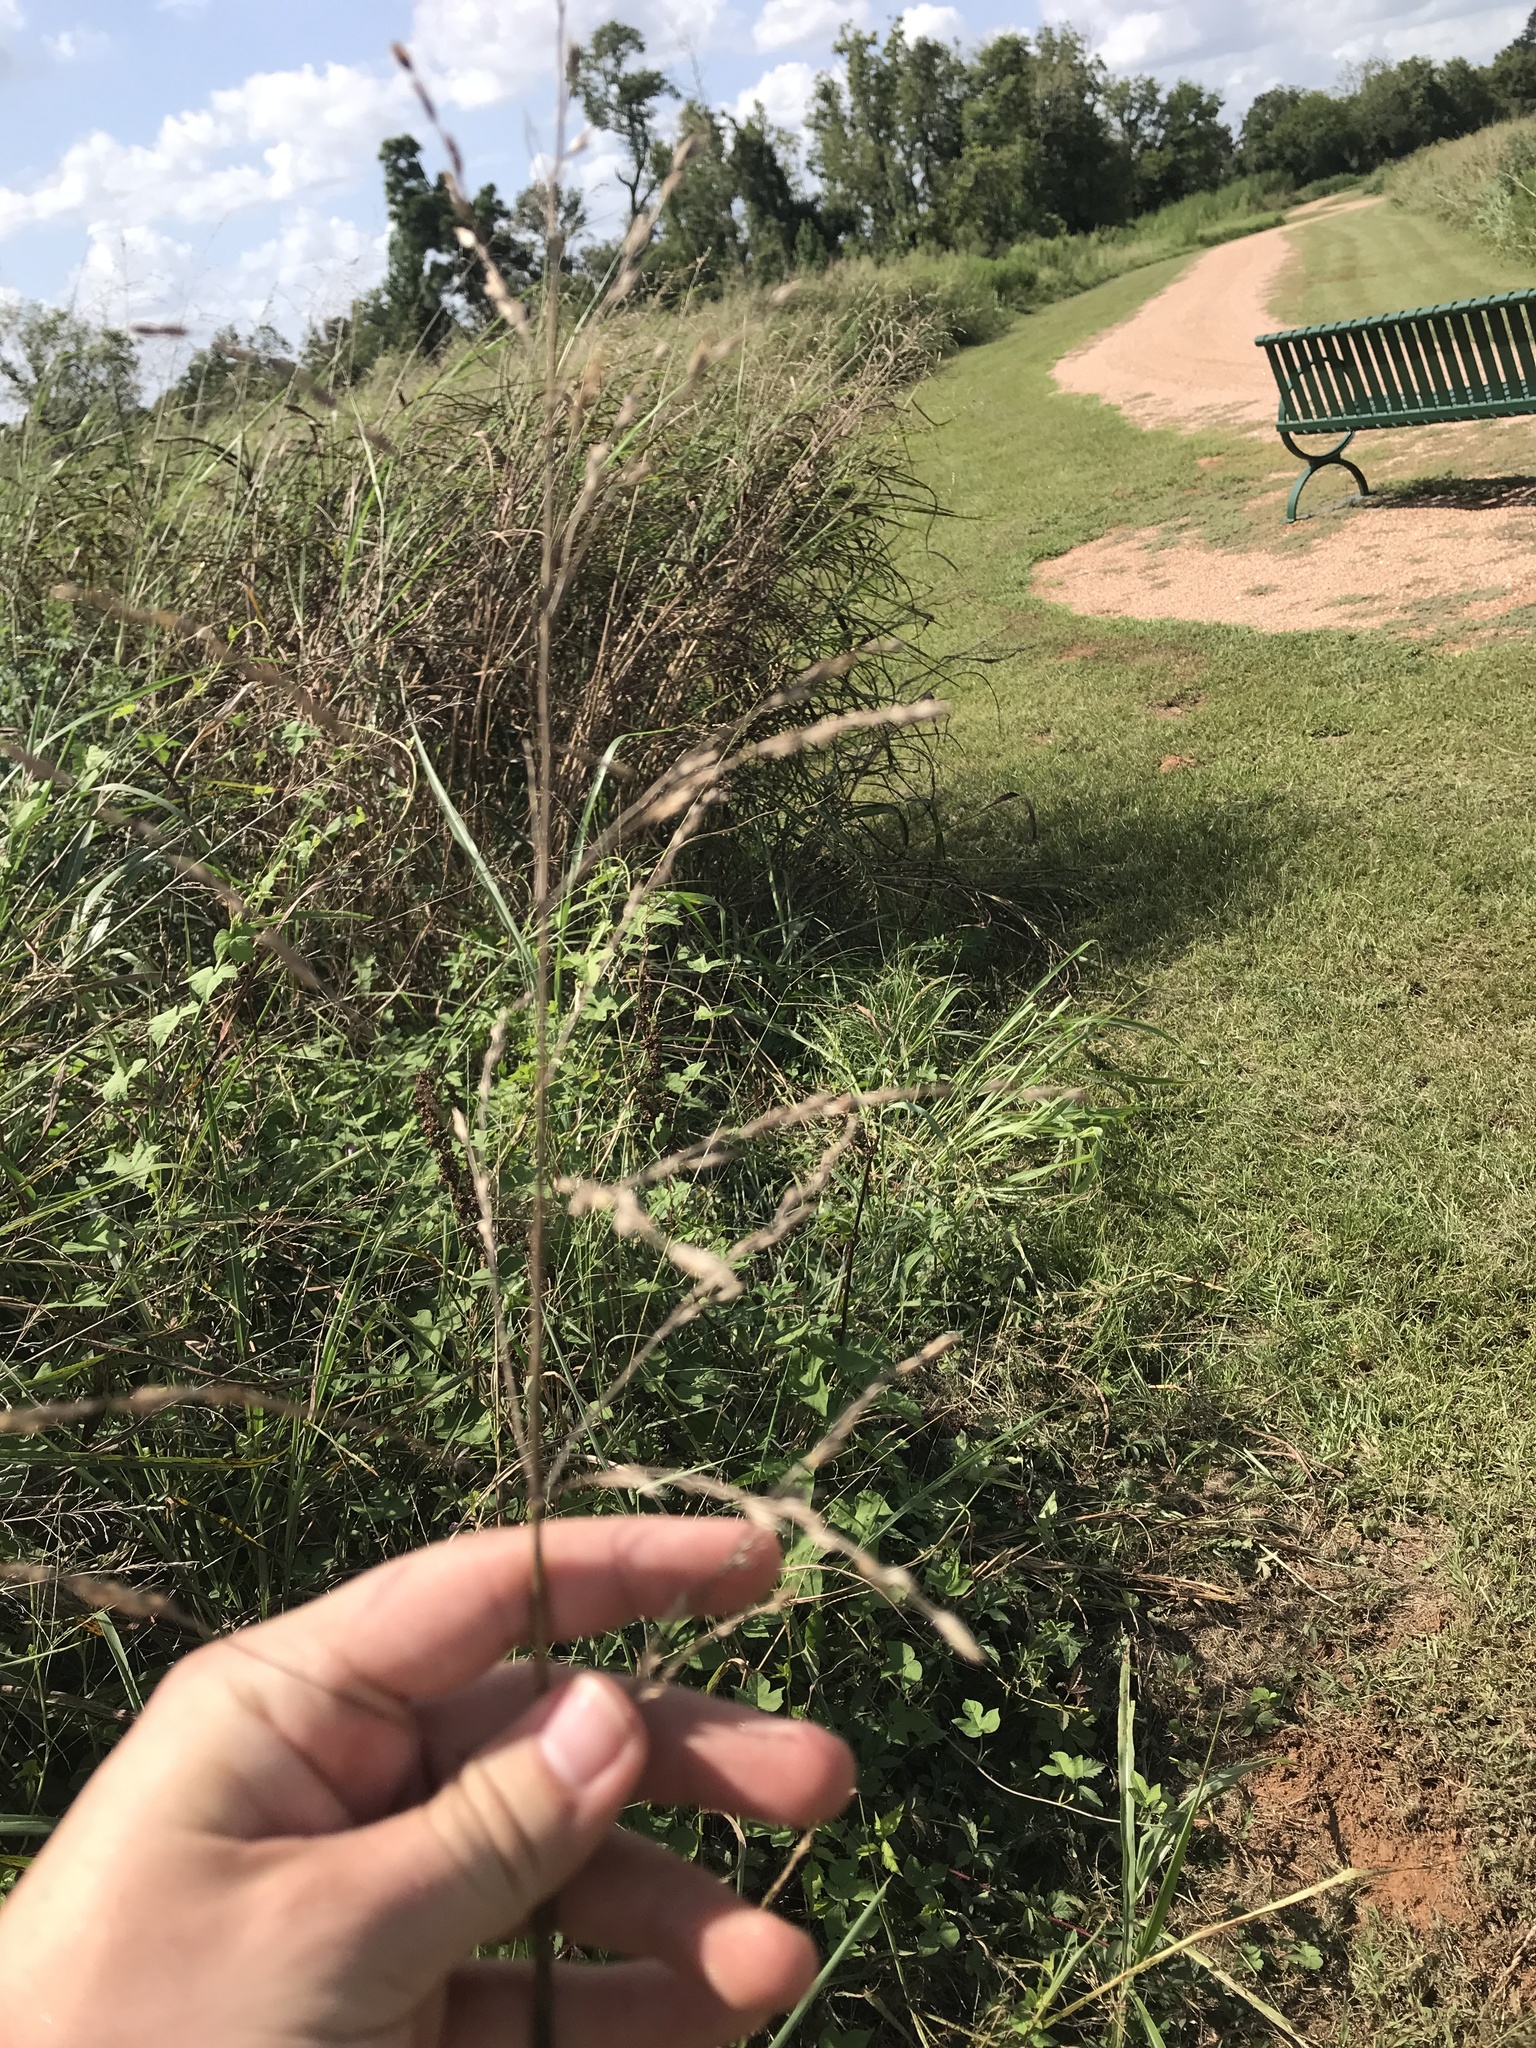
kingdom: Plantae
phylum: Tracheophyta
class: Liliopsida
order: Poales
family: Poaceae
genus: Sorghum
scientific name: Sorghum halepense
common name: Johnson-grass
